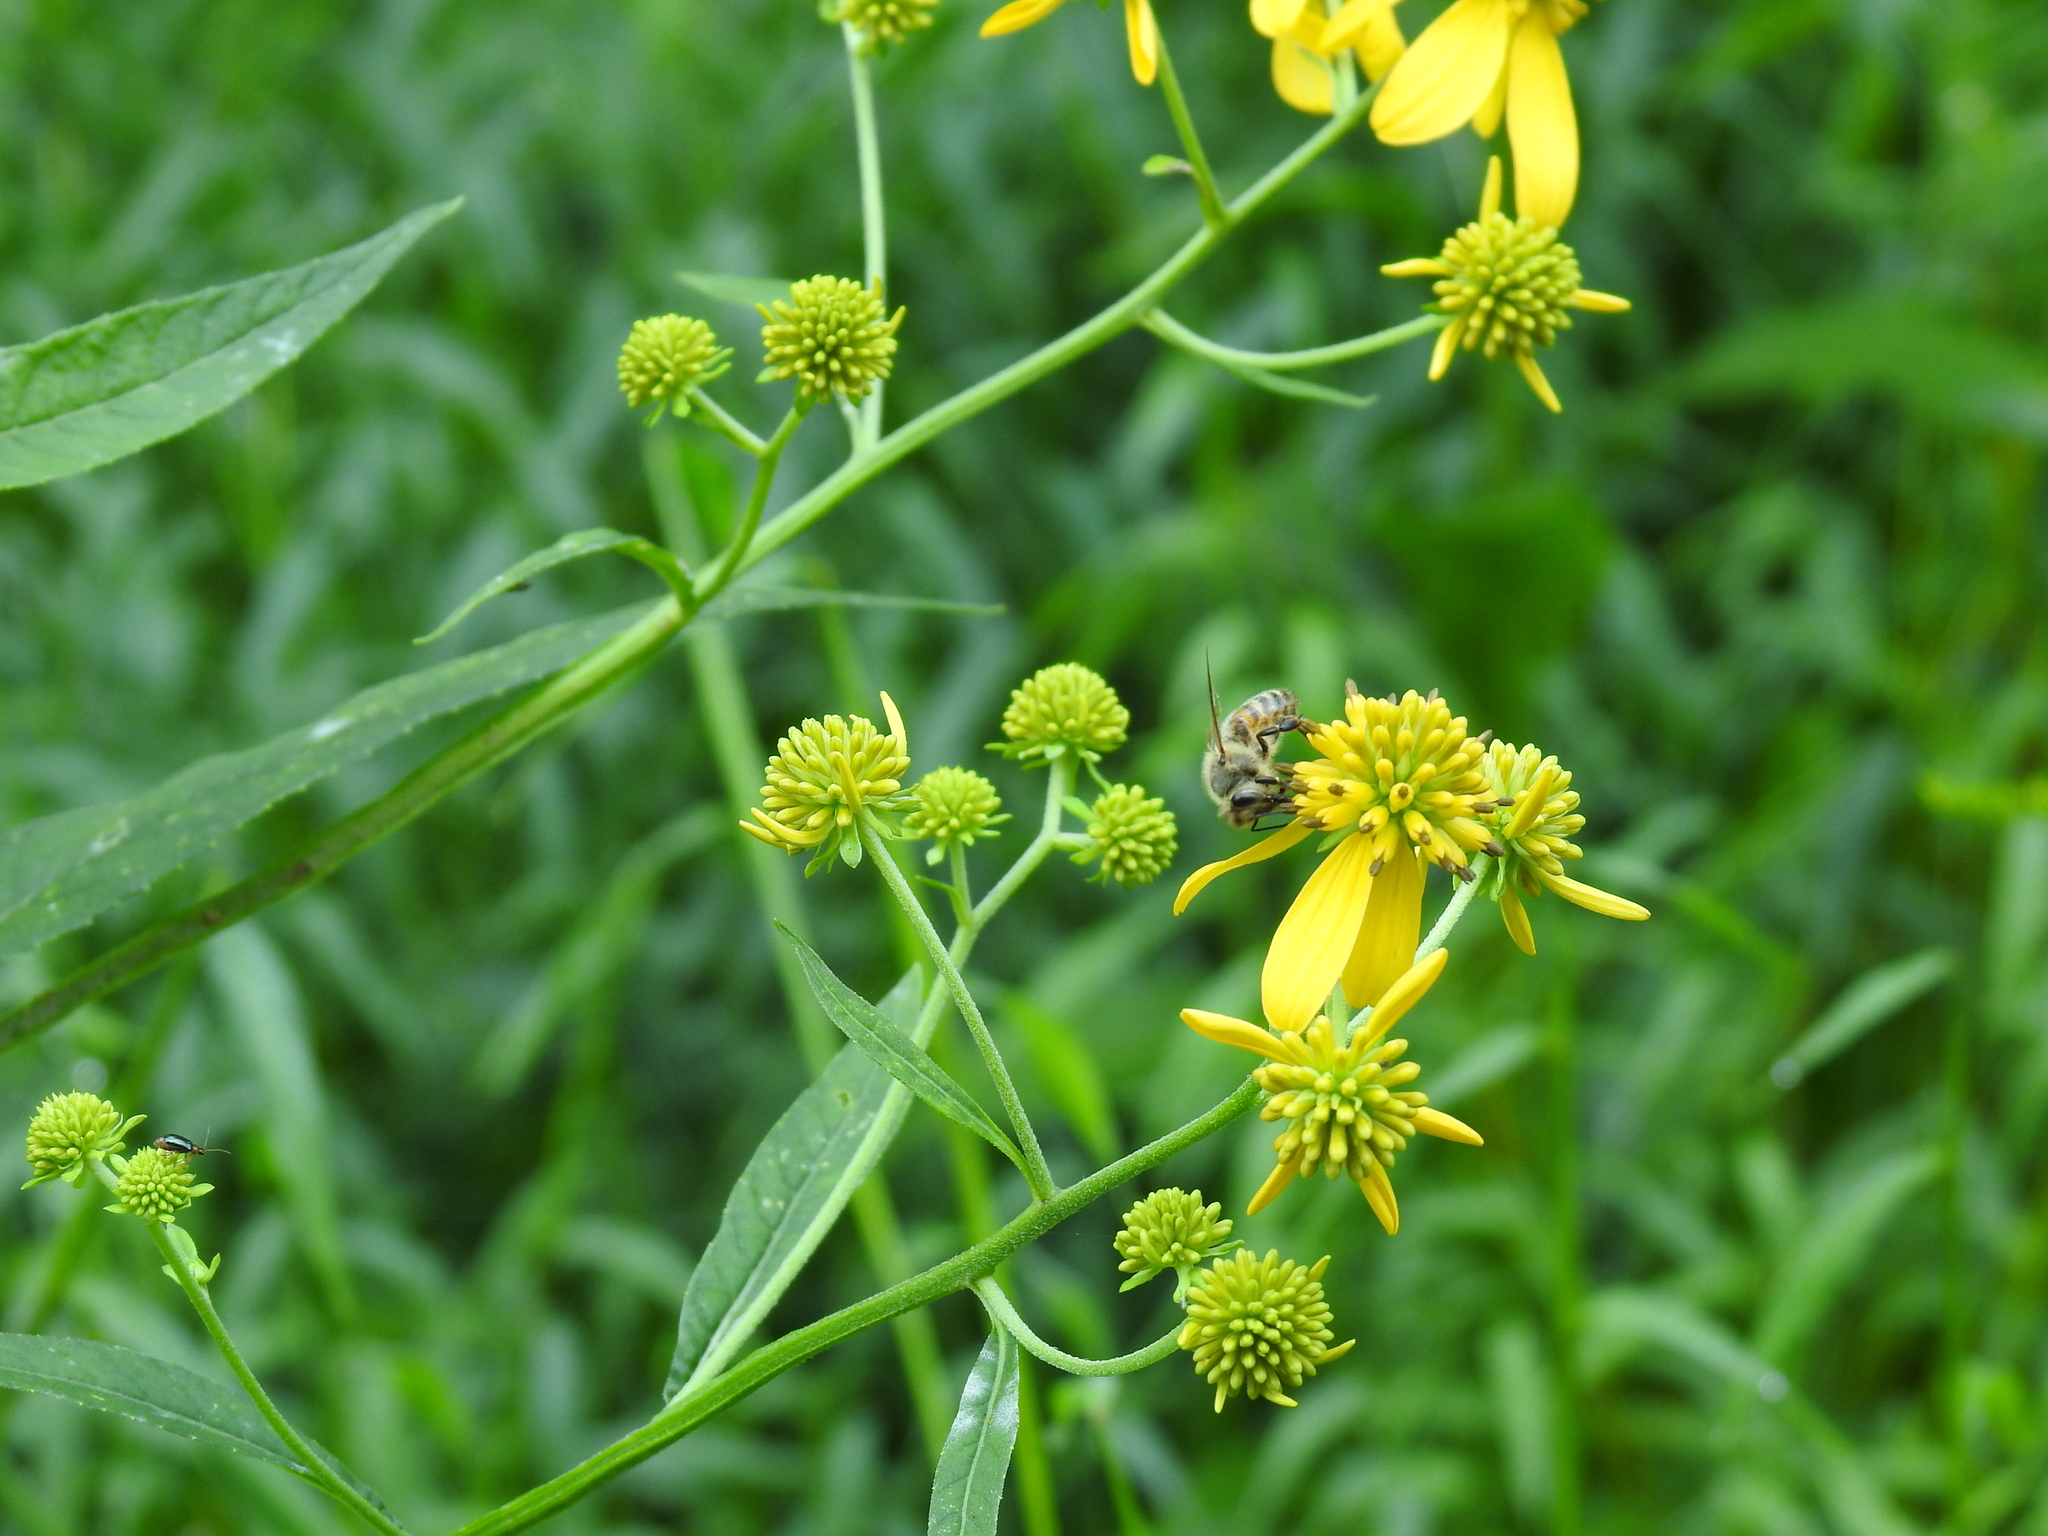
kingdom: Animalia
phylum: Arthropoda
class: Insecta
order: Hymenoptera
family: Apidae
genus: Apis
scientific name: Apis mellifera
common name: Honey bee
